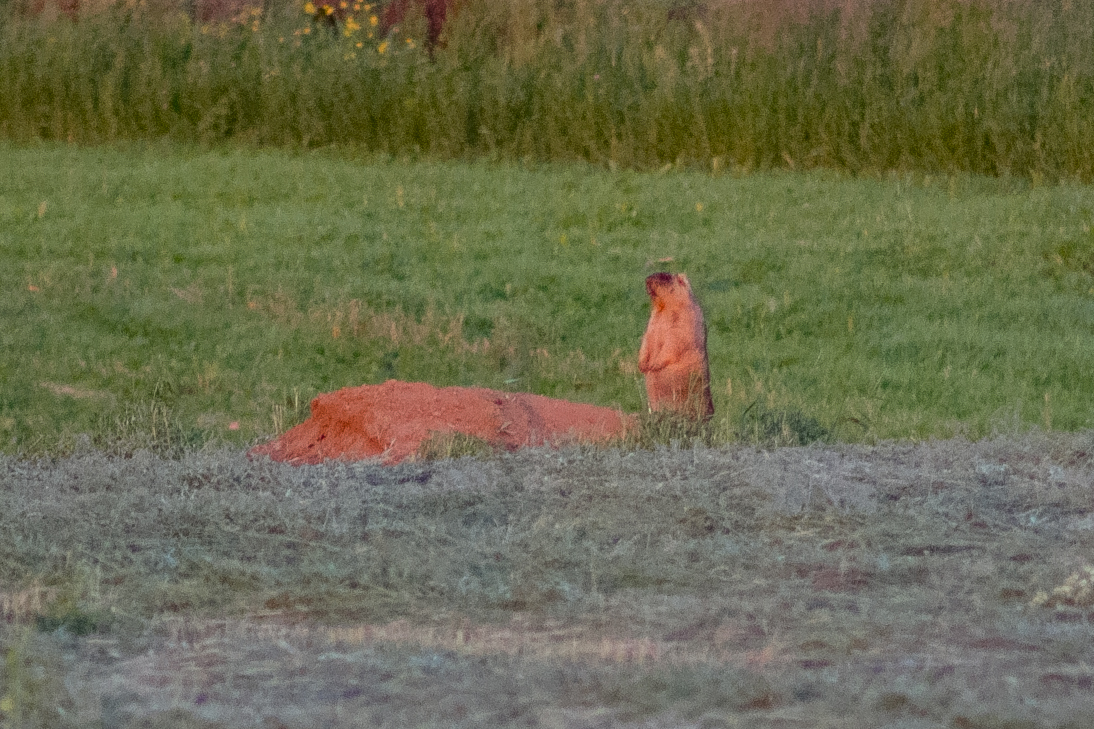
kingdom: Animalia
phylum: Chordata
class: Mammalia
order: Rodentia
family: Sciuridae
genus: Marmota
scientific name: Marmota bobak
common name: Bobak marmot
